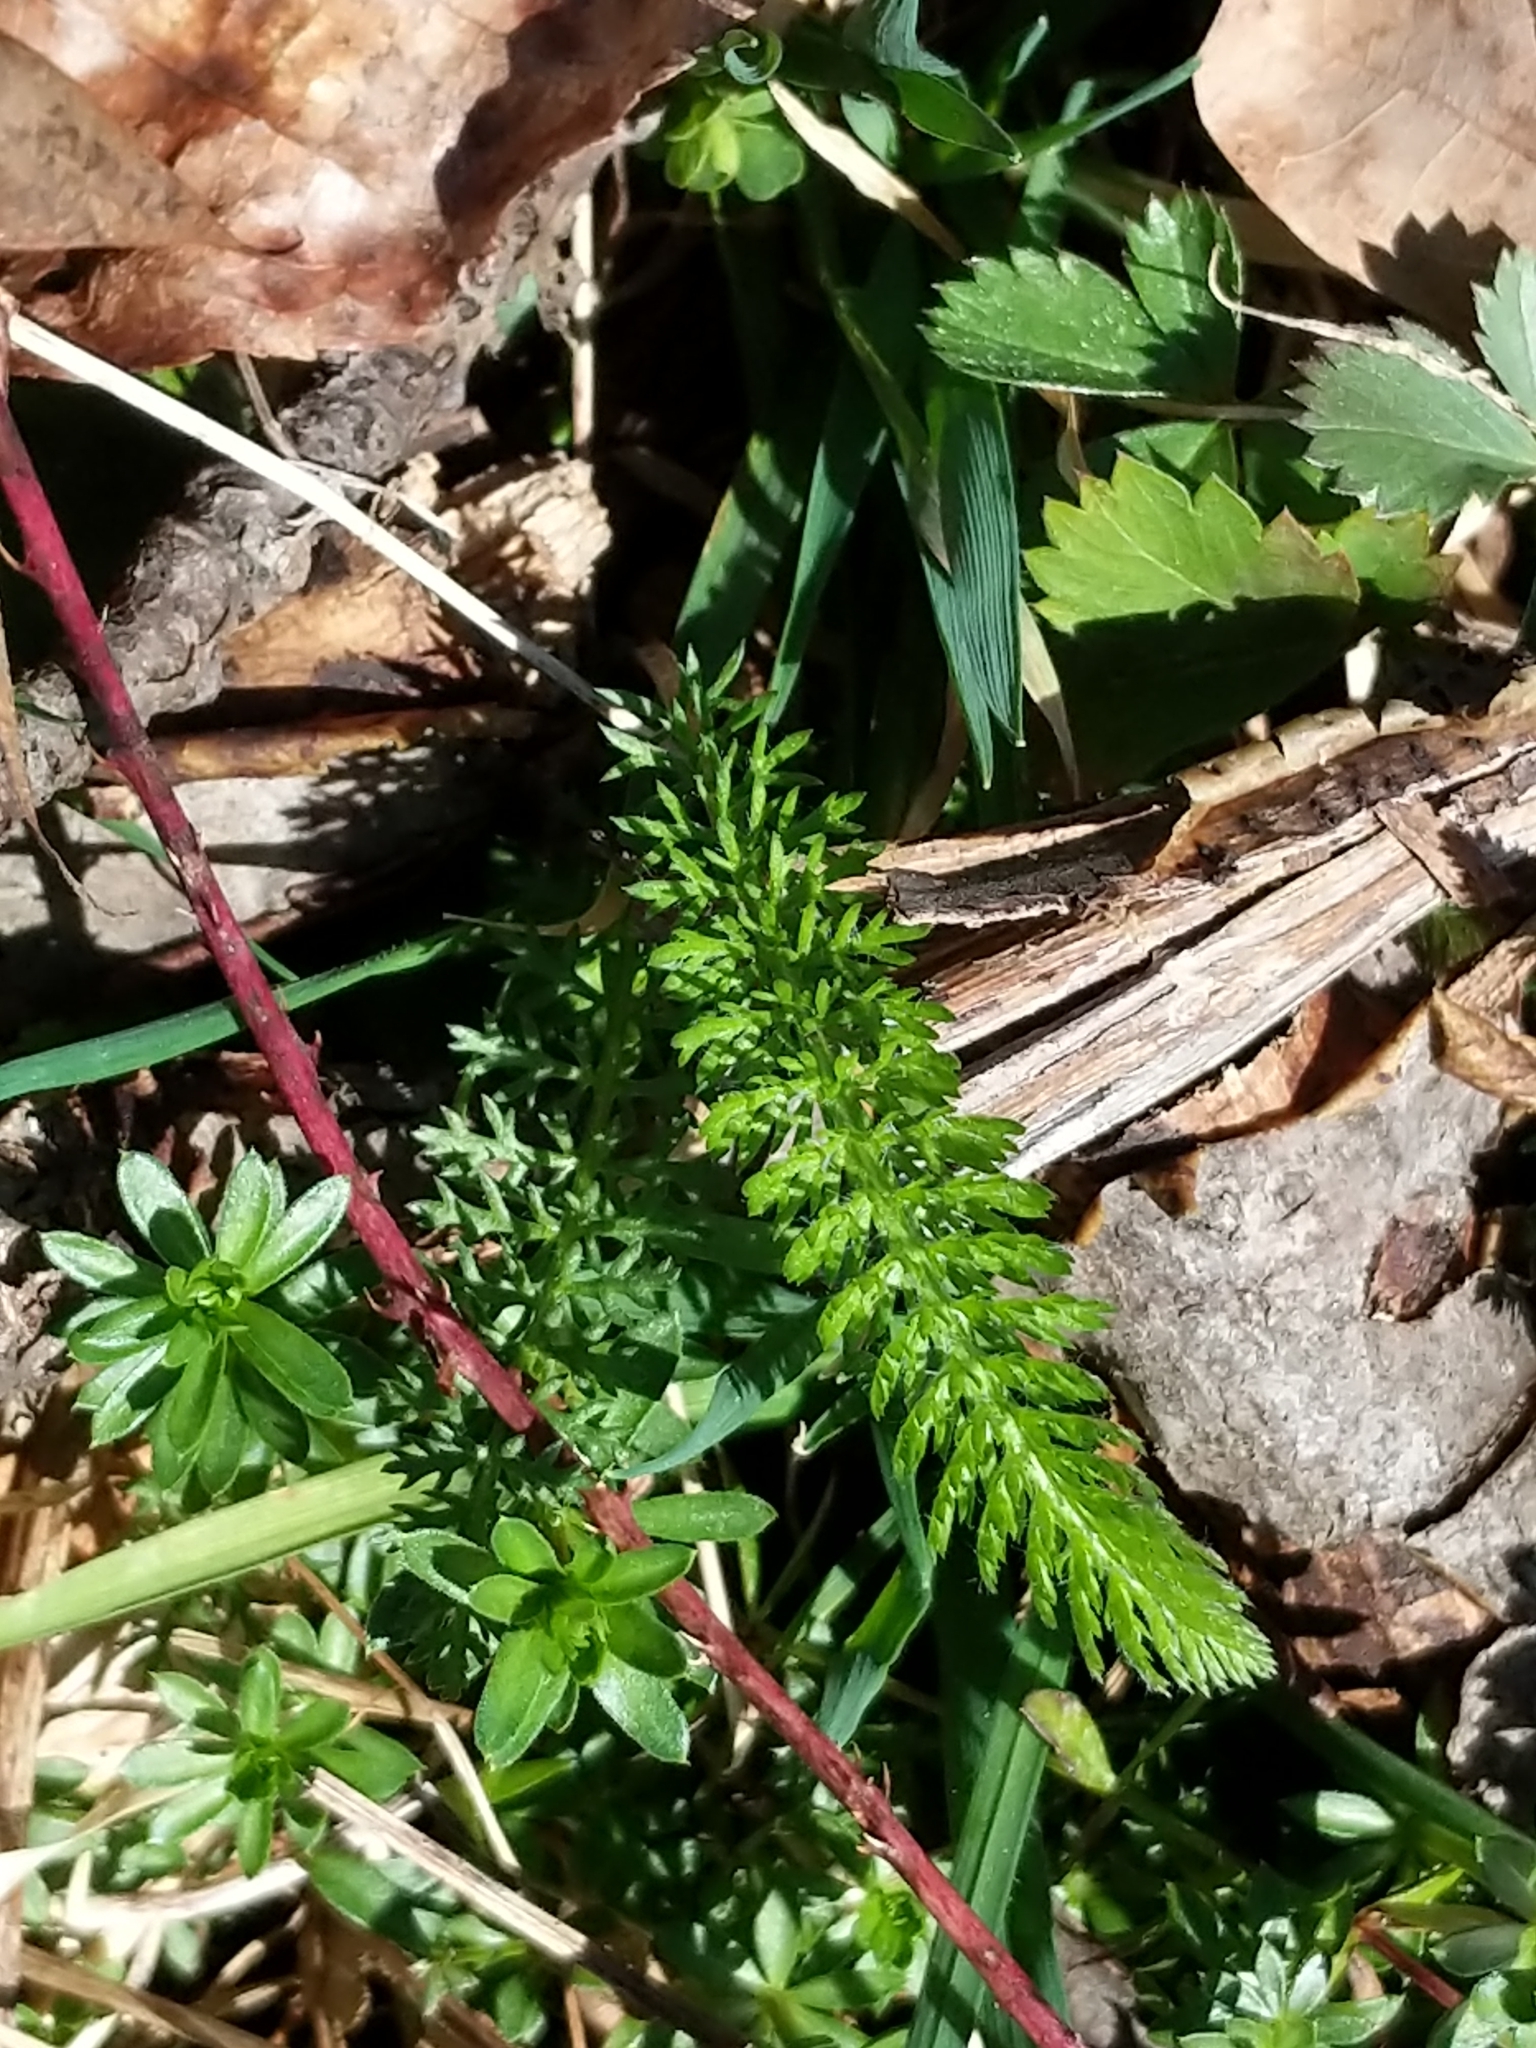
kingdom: Plantae
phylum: Tracheophyta
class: Magnoliopsida
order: Asterales
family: Asteraceae
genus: Achillea
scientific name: Achillea millefolium
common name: Yarrow
